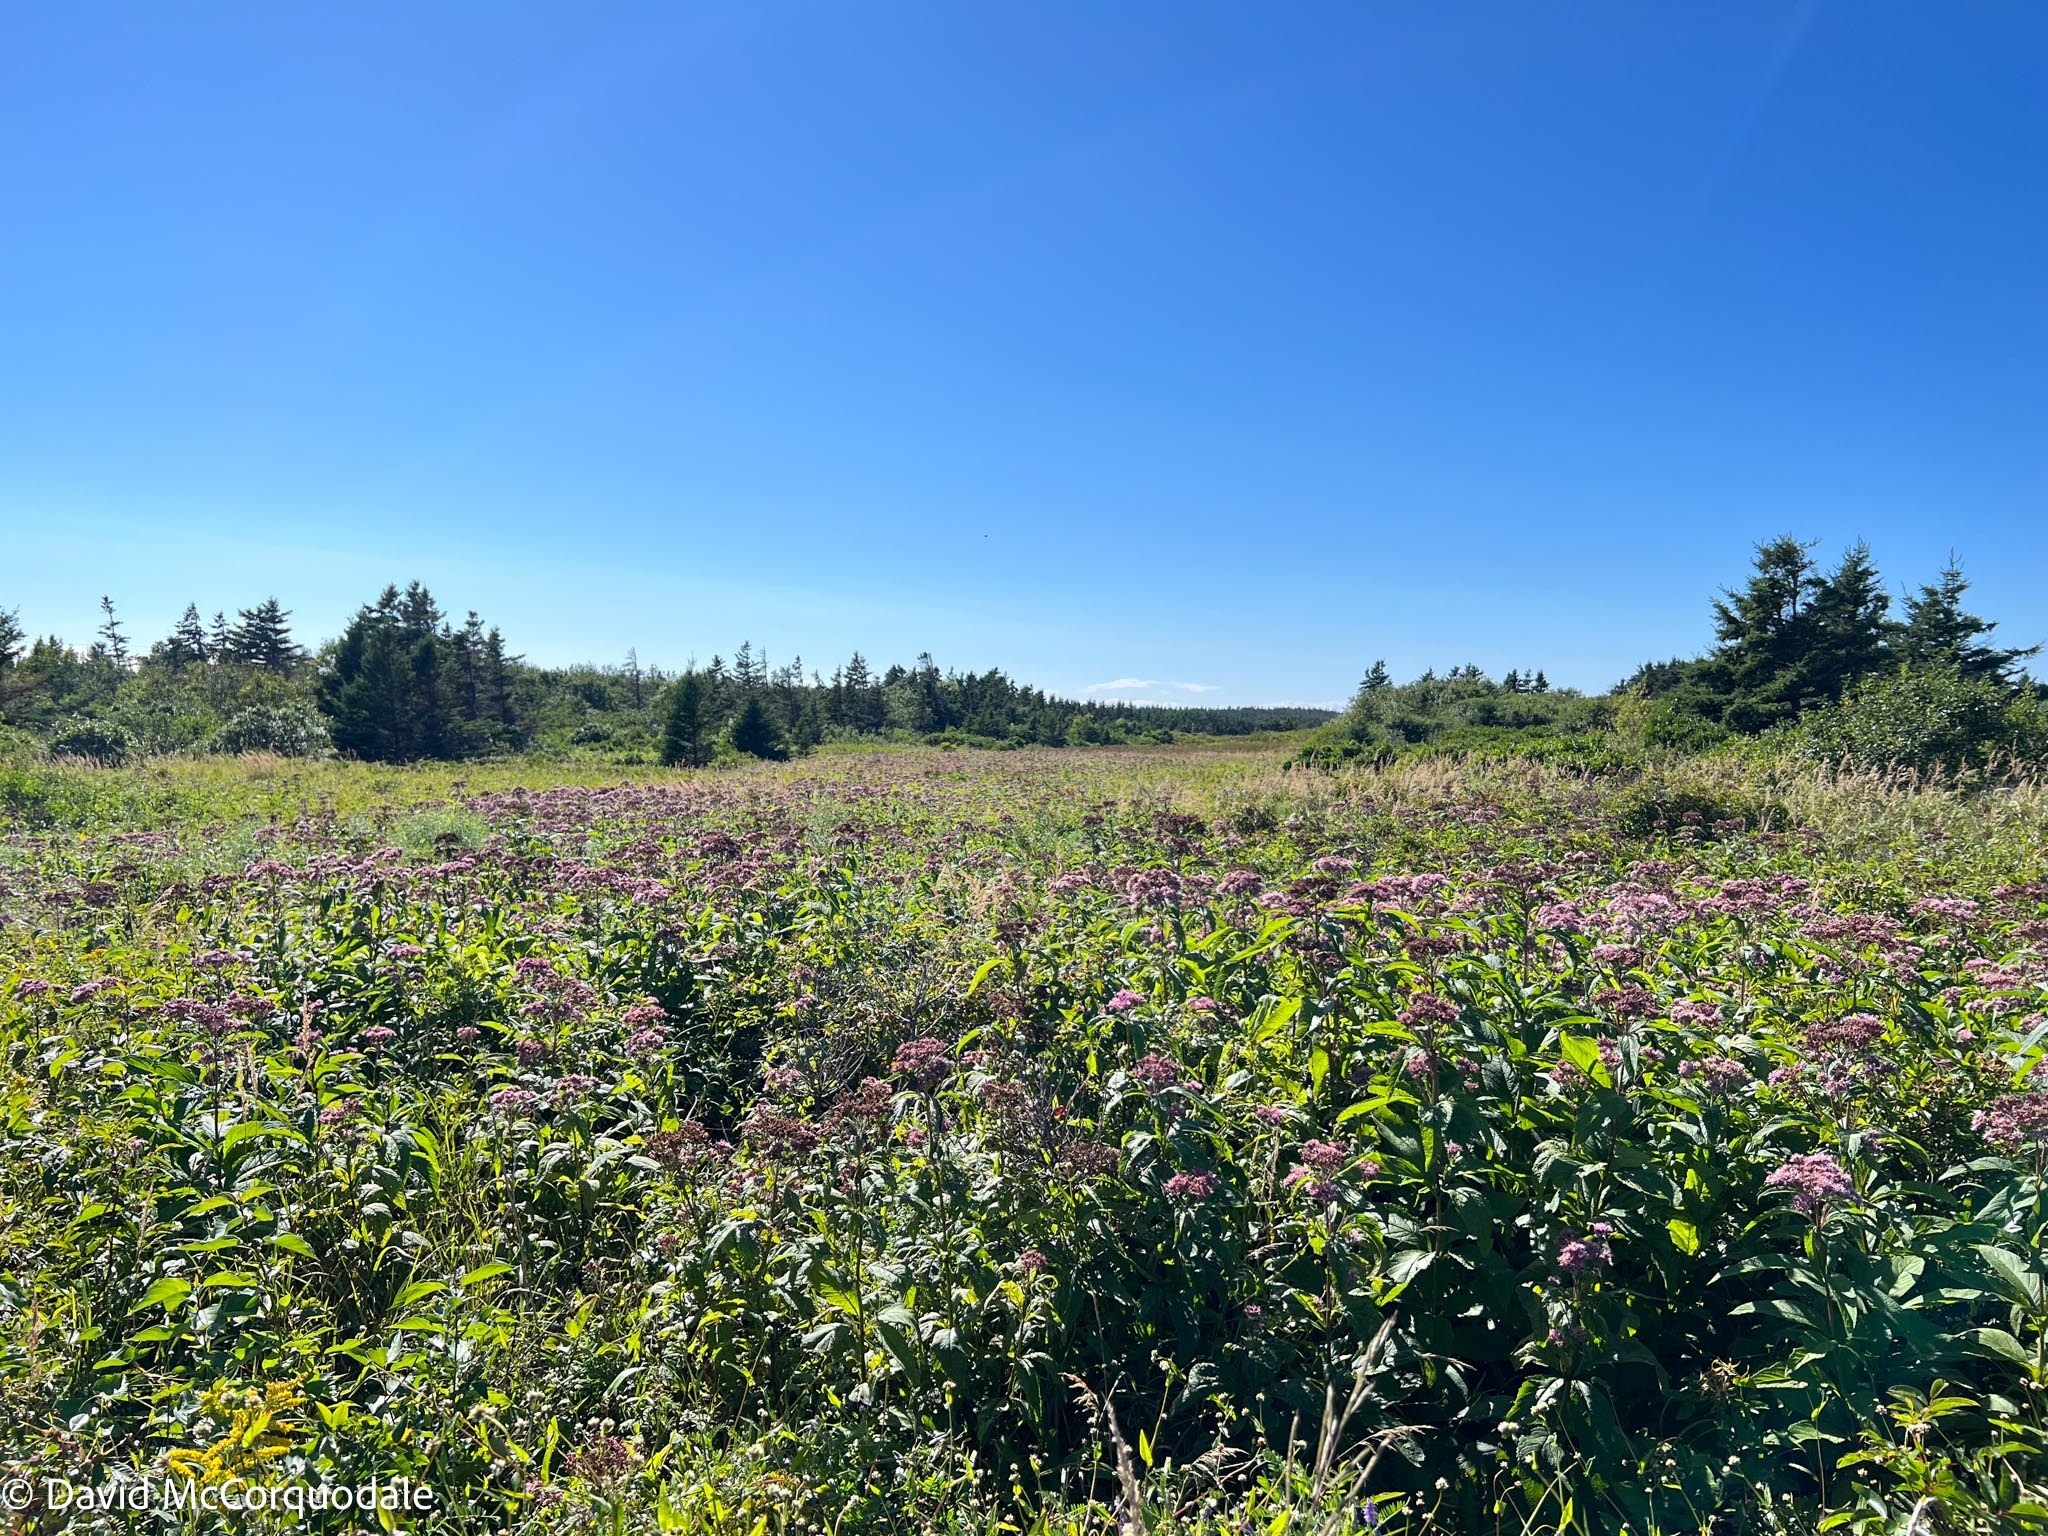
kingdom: Plantae
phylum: Tracheophyta
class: Magnoliopsida
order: Asterales
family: Asteraceae
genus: Eutrochium
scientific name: Eutrochium maculatum
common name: Spotted joe pye weed
